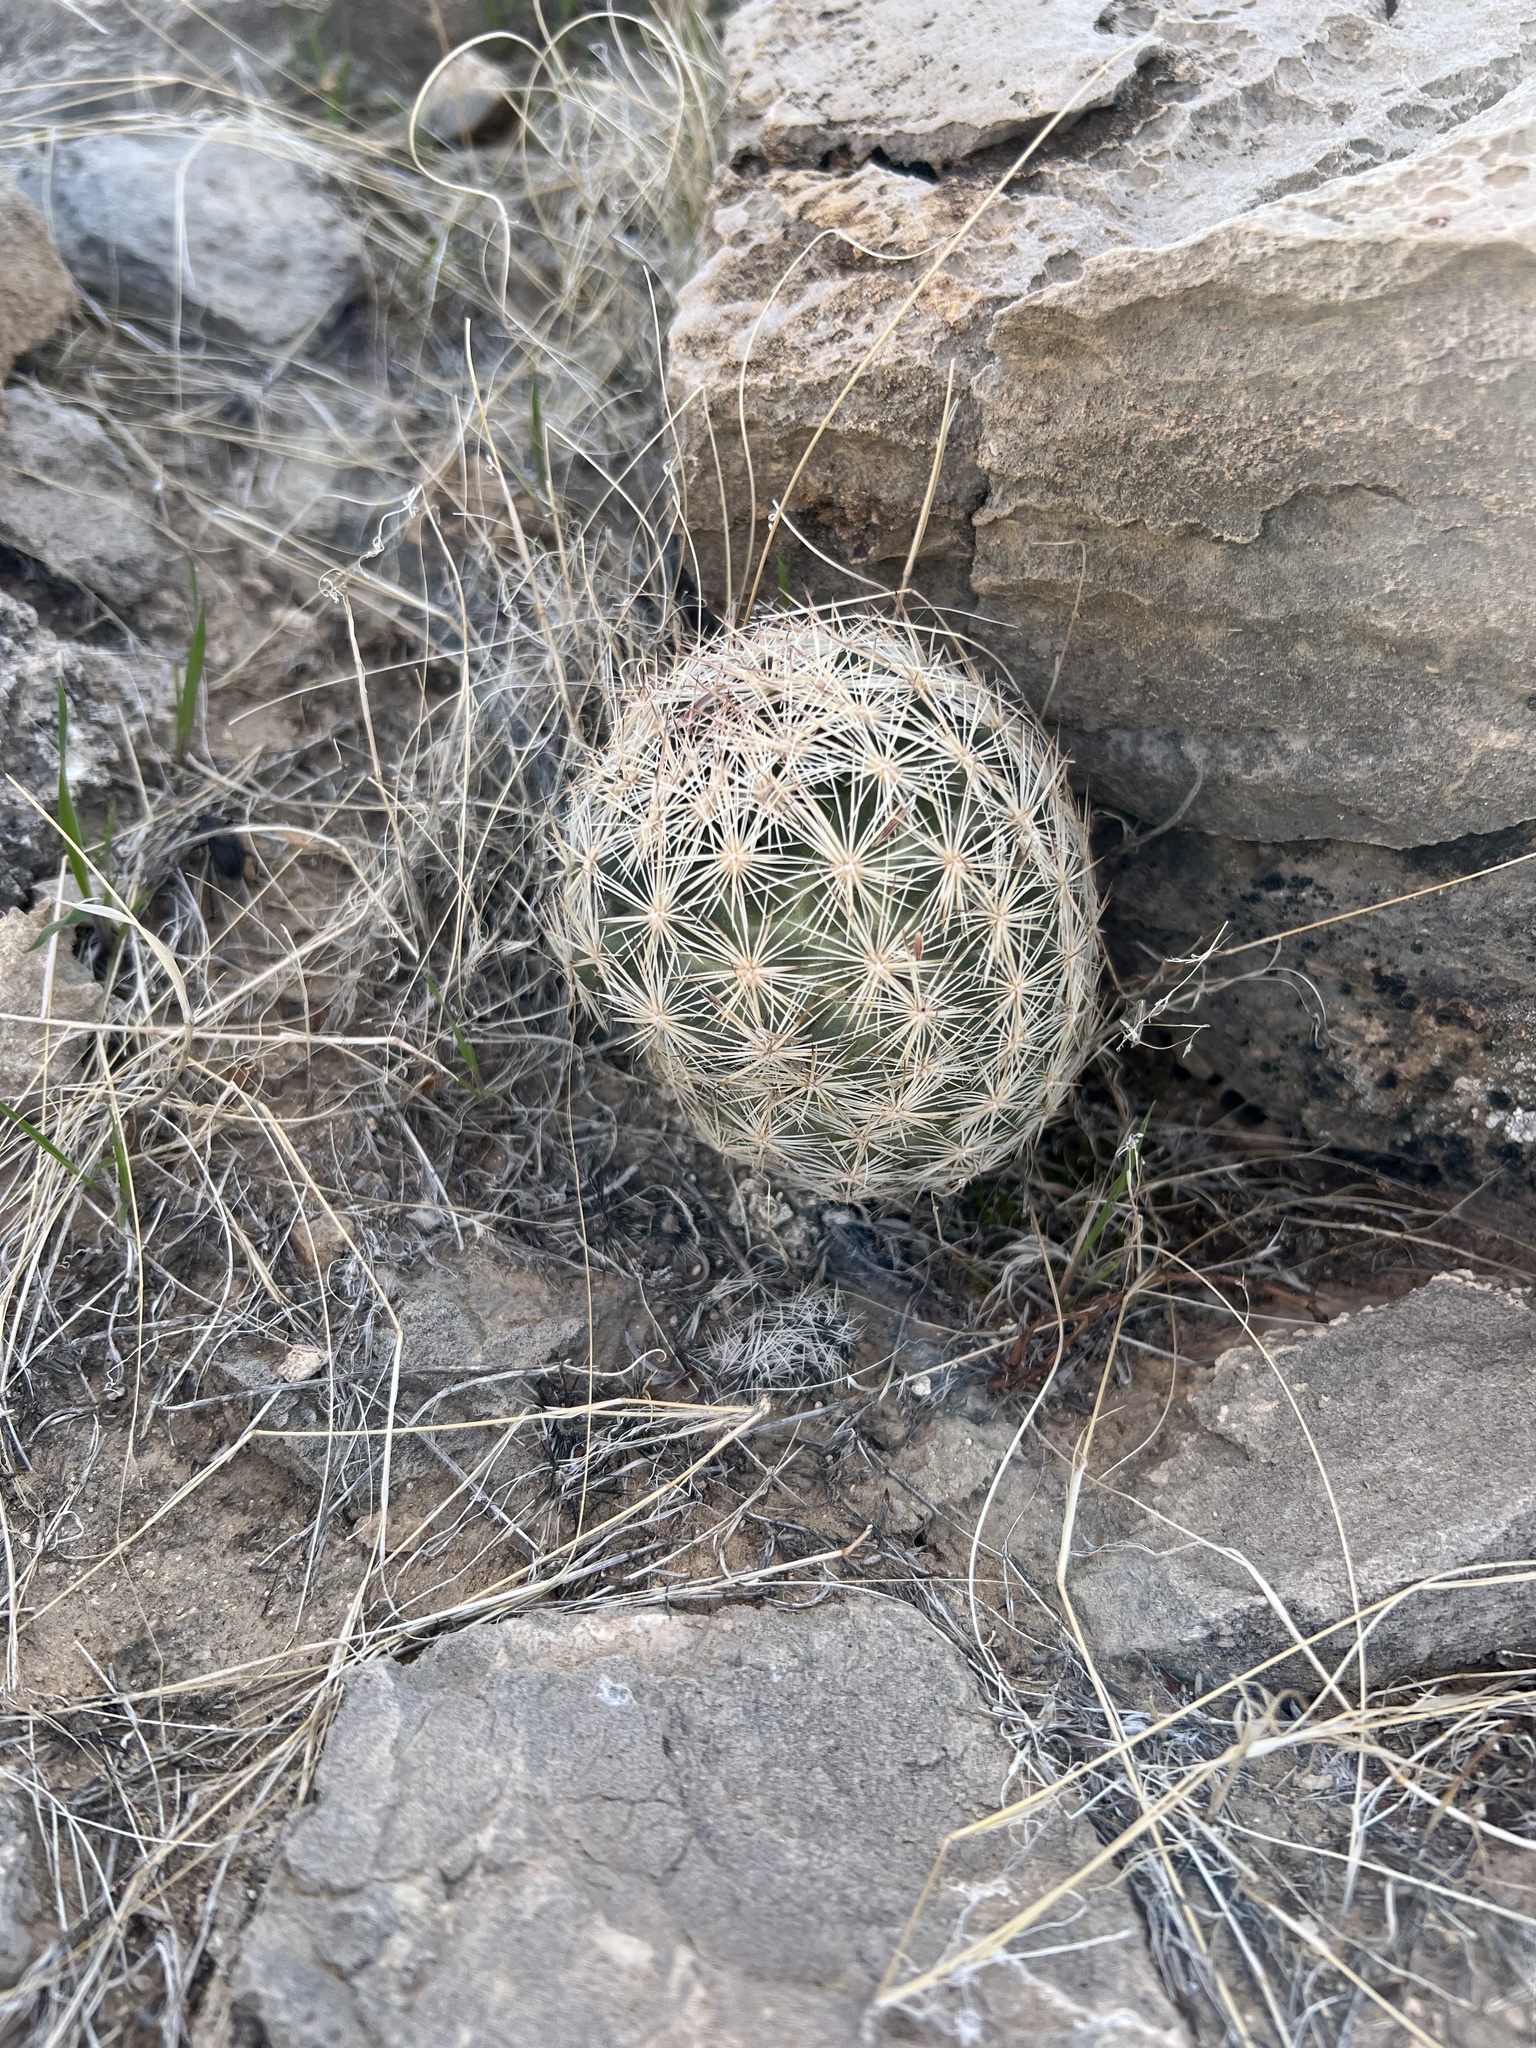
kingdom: Plantae
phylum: Tracheophyta
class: Magnoliopsida
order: Caryophyllales
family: Cactaceae
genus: Pelecyphora
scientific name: Pelecyphora dasyacantha
